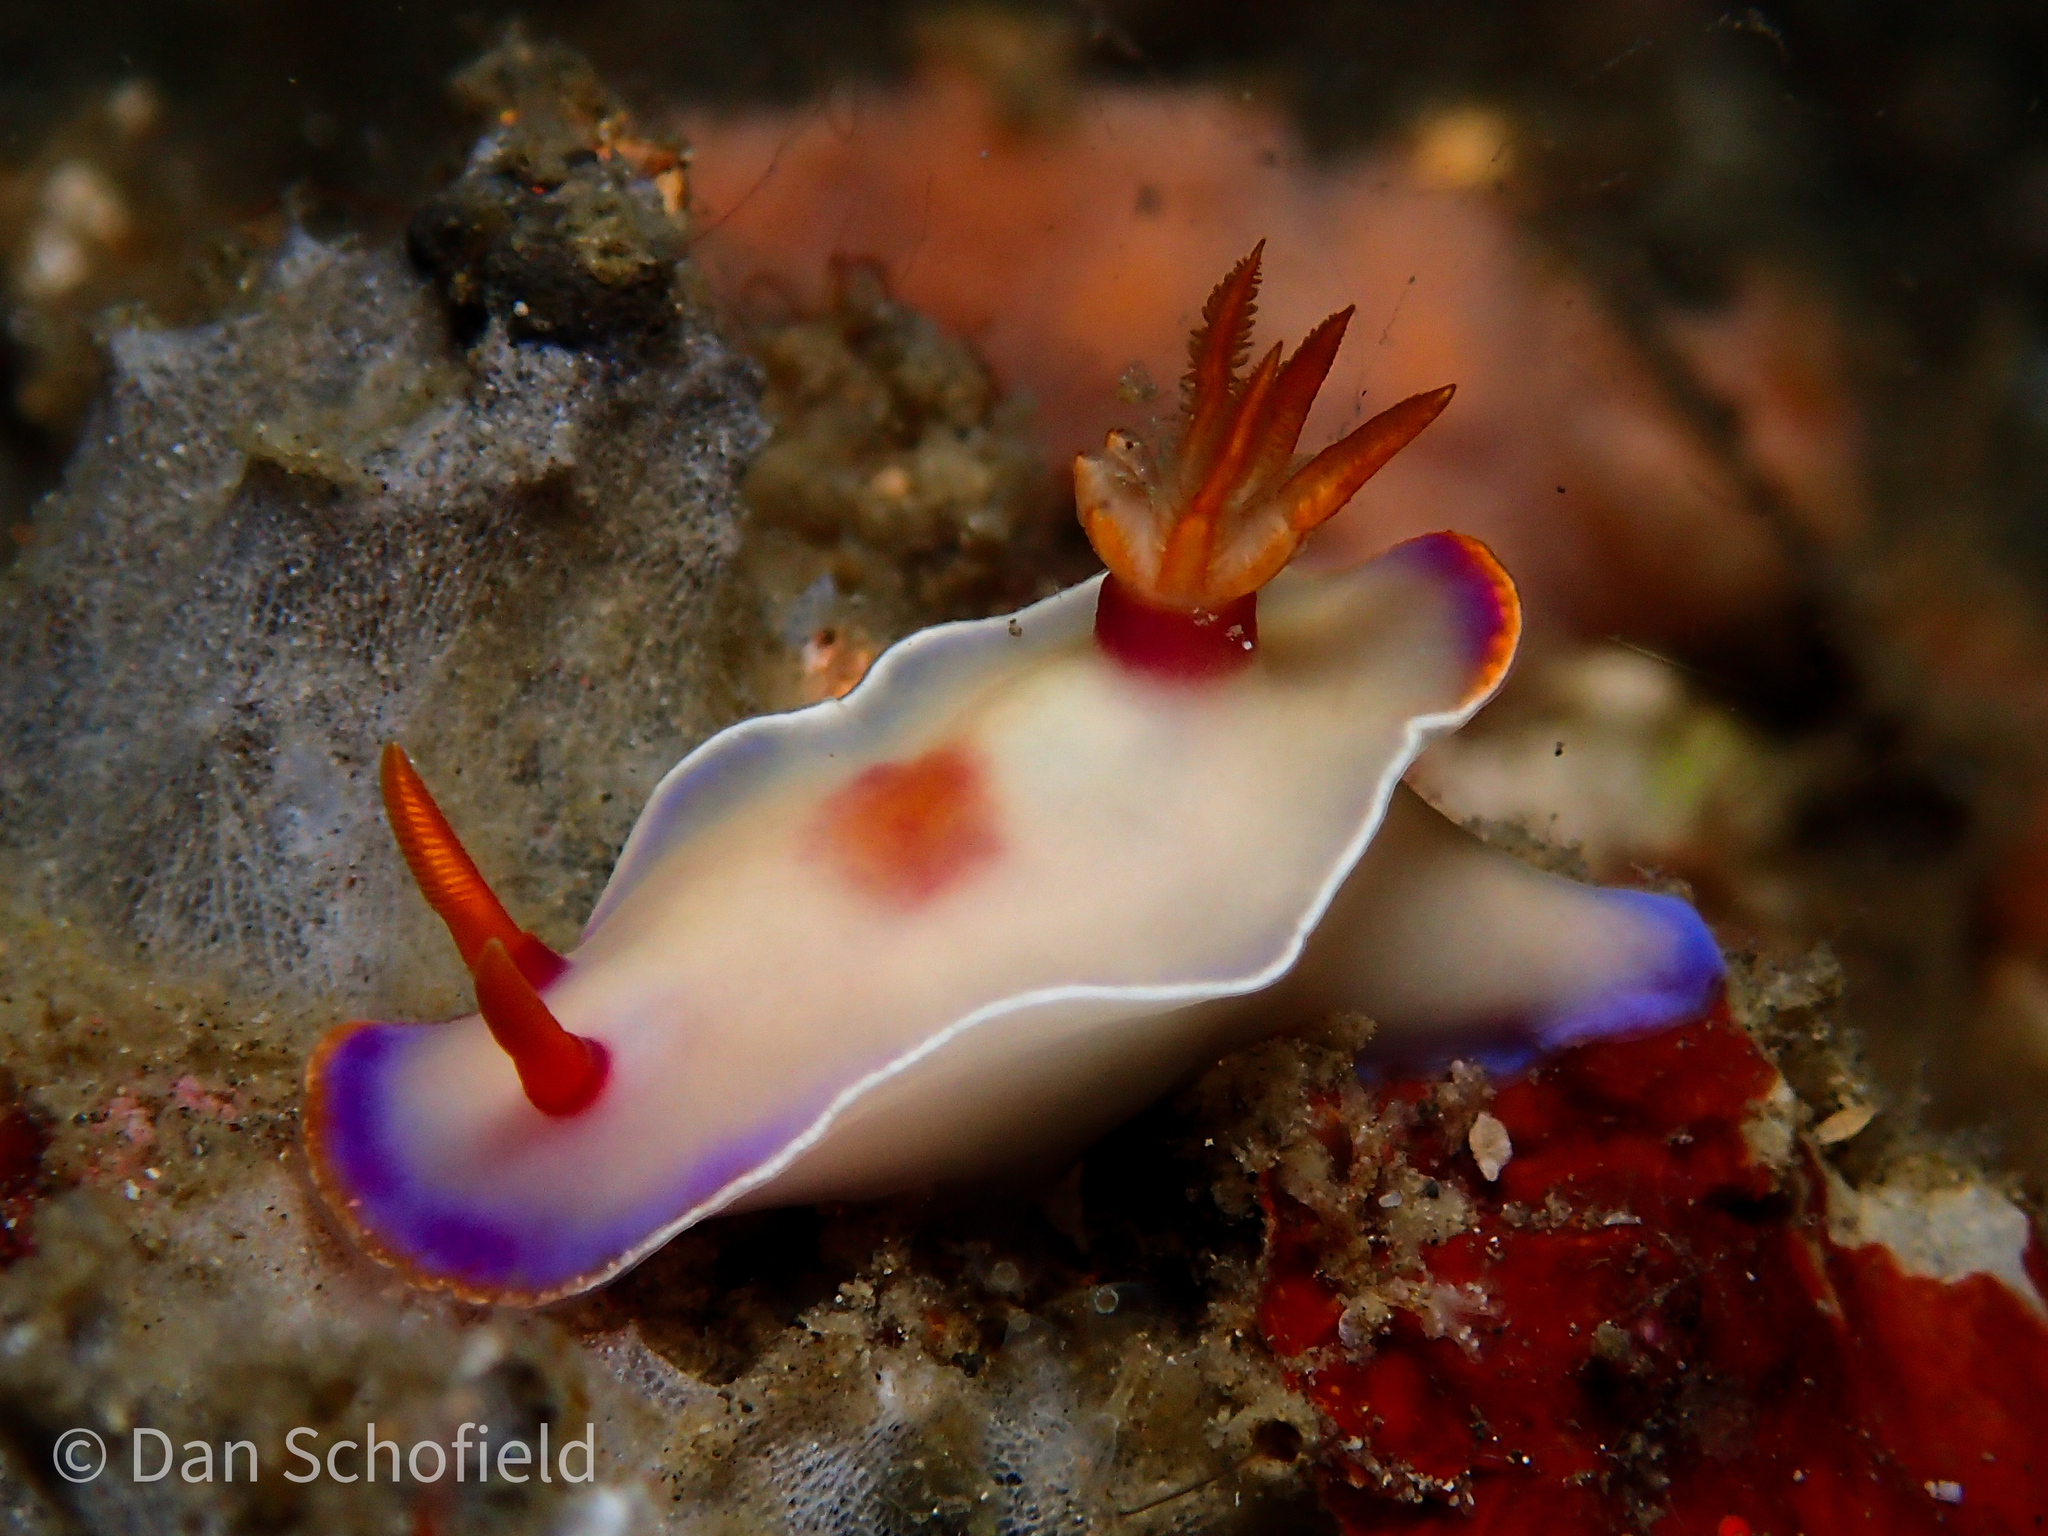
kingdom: Animalia
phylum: Mollusca
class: Gastropoda
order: Nudibranchia
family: Chromodorididae
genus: Hypselodoris
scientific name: Hypselodoris iba
